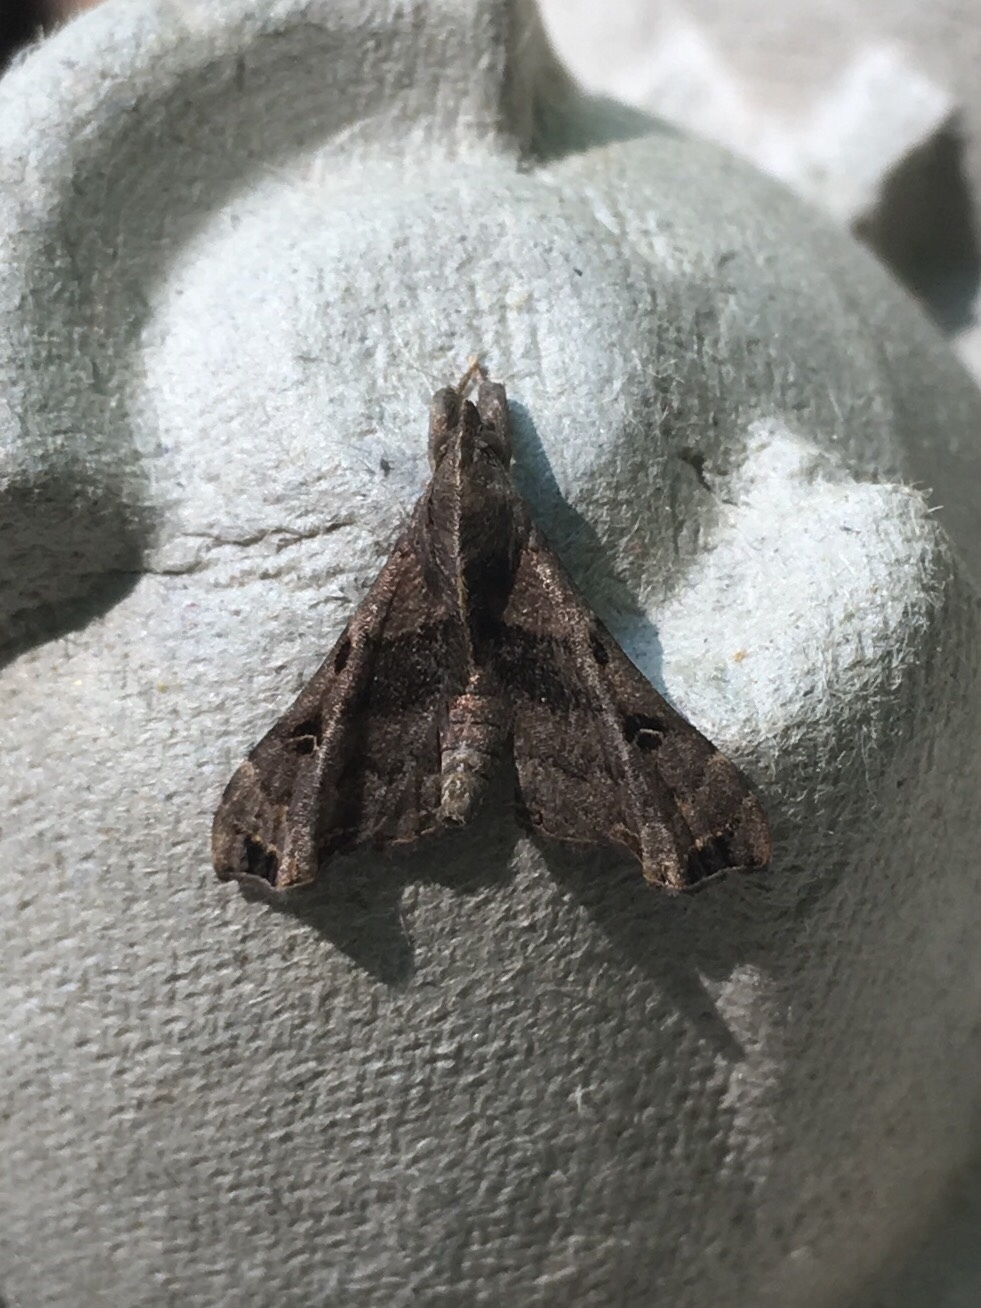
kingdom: Animalia
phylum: Arthropoda
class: Insecta
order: Lepidoptera
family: Erebidae
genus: Palthis
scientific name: Palthis asopialis
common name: Faint-spotted palthis moth
